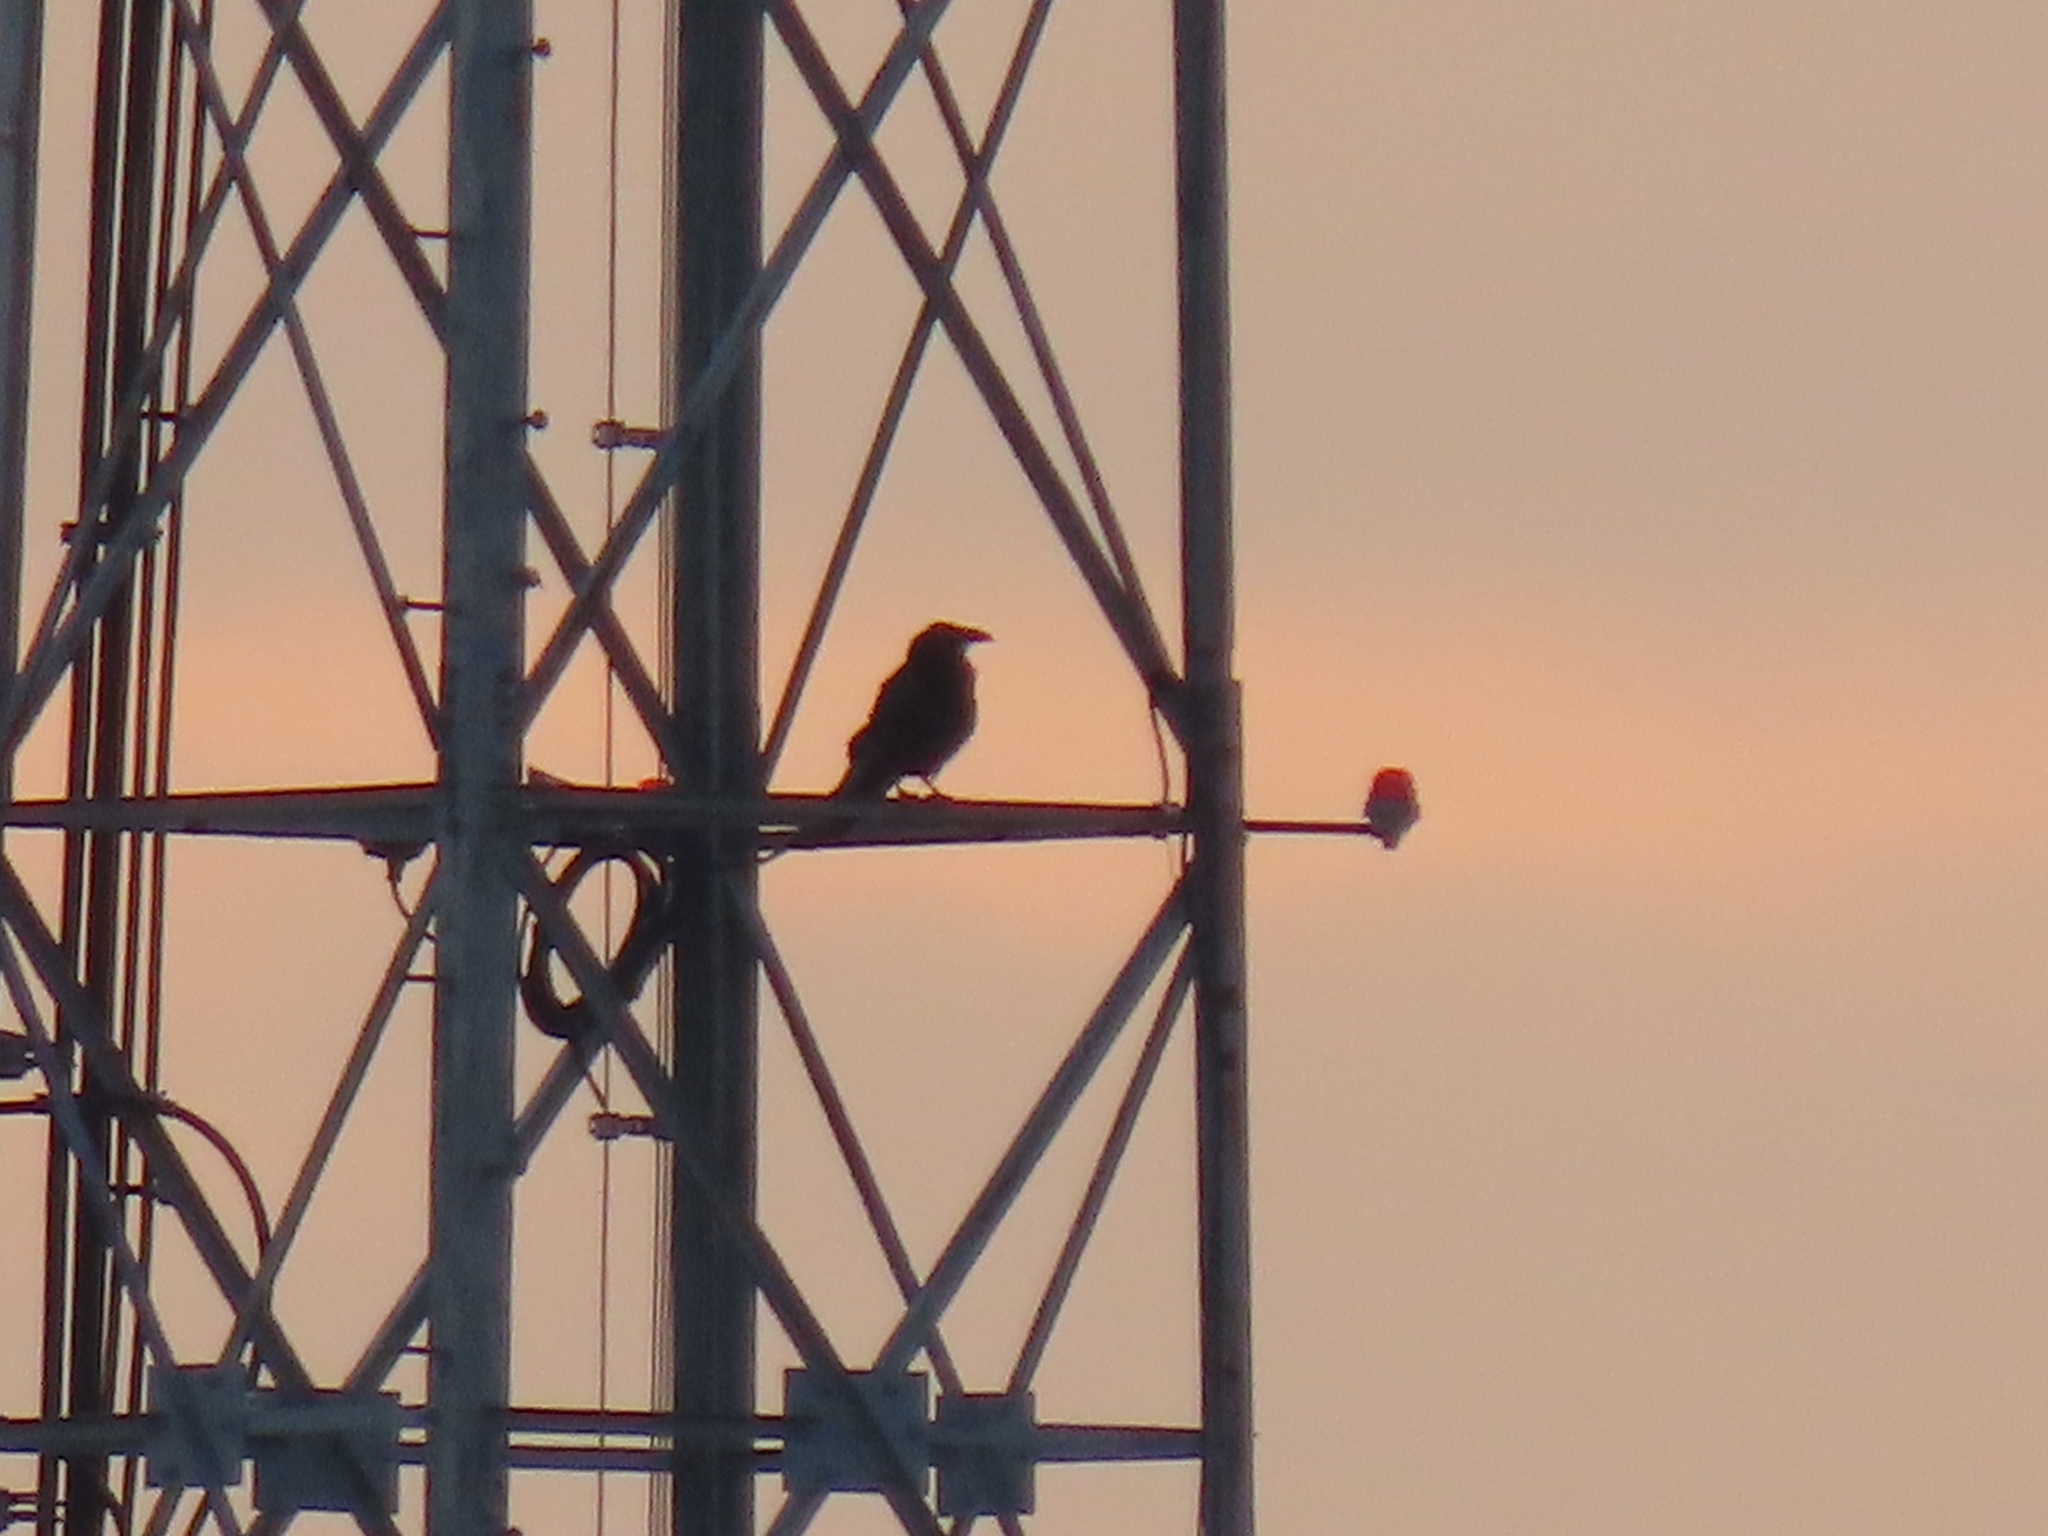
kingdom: Animalia
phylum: Chordata
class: Aves
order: Passeriformes
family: Corvidae
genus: Corvus
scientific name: Corvus corax
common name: Common raven
